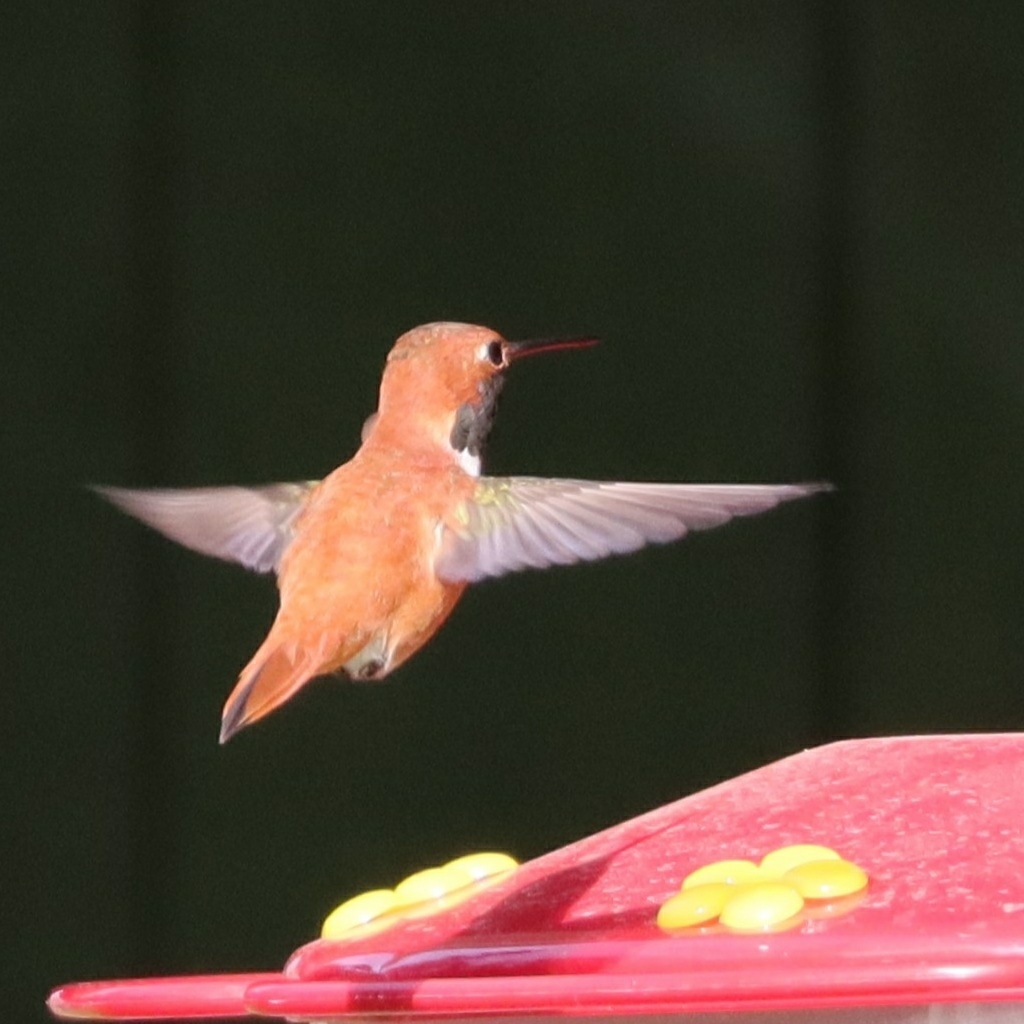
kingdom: Animalia
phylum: Chordata
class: Aves
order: Apodiformes
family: Trochilidae
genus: Selasphorus
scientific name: Selasphorus rufus
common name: Rufous hummingbird
